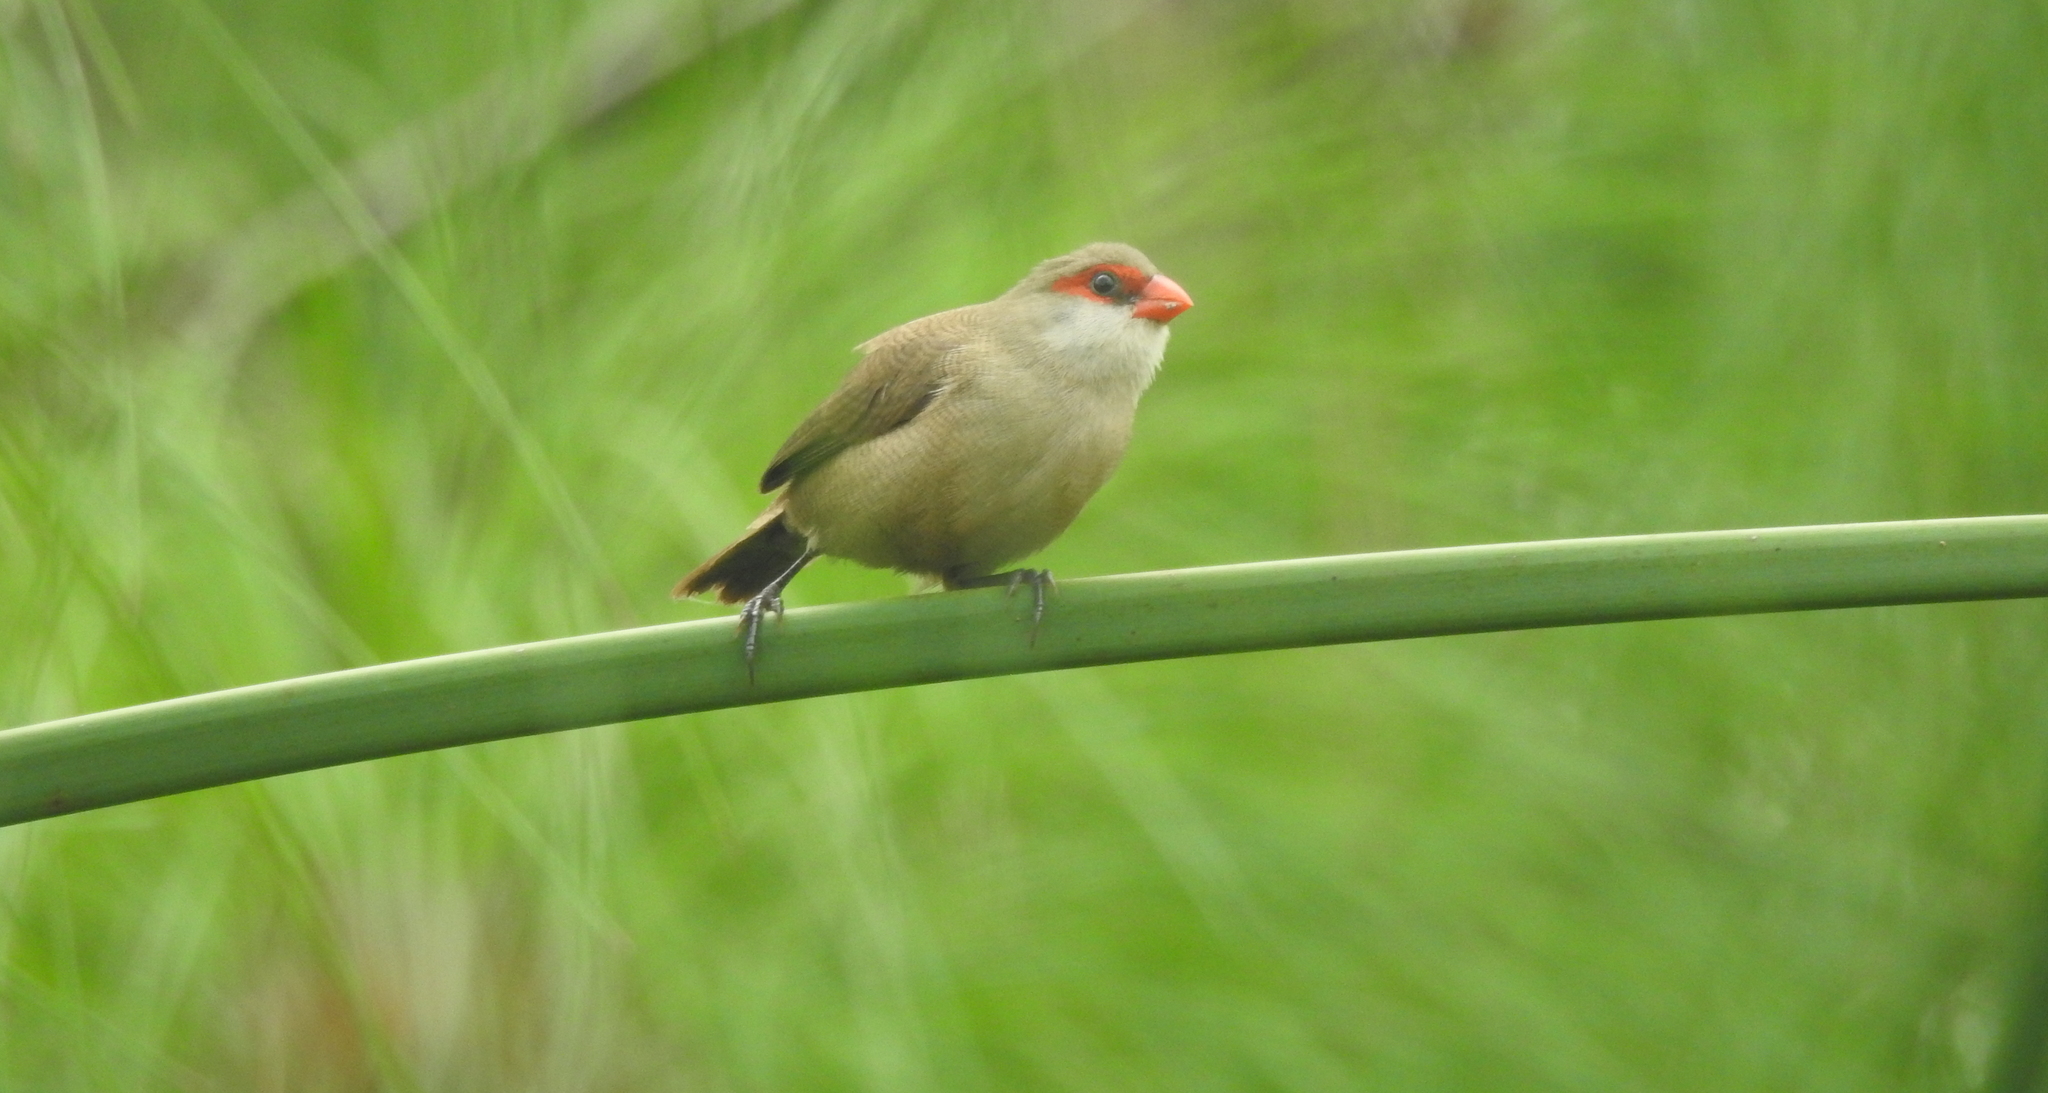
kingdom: Animalia
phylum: Chordata
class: Aves
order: Passeriformes
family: Estrildidae
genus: Estrilda
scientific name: Estrilda astrild
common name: Common waxbill
